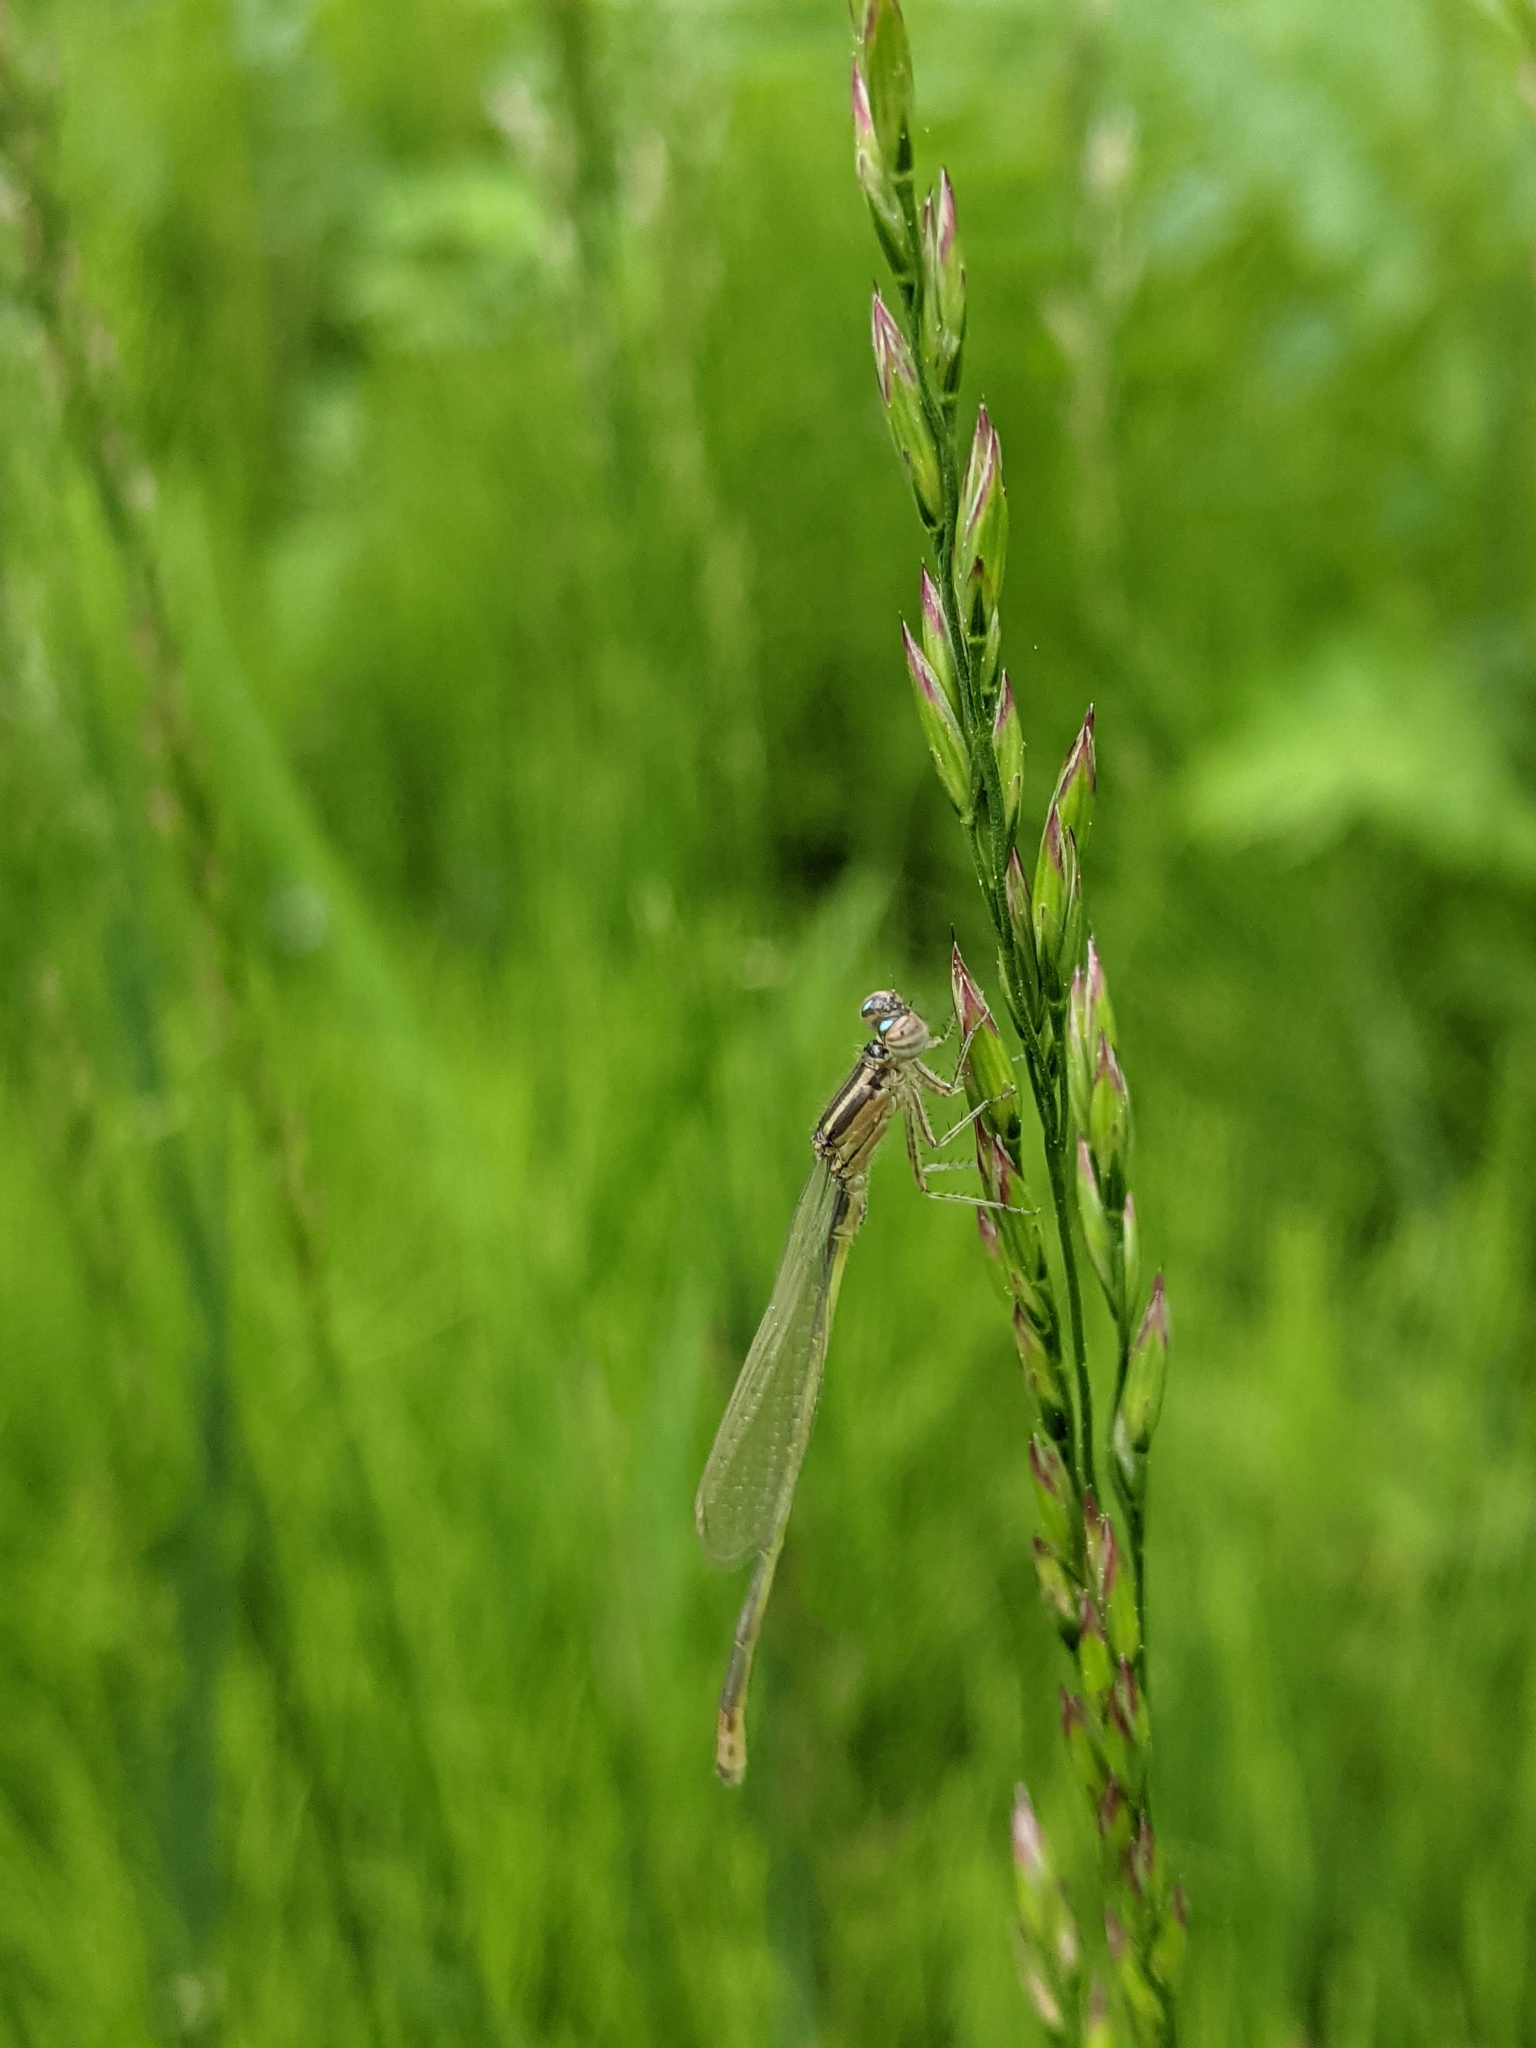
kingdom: Animalia
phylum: Arthropoda
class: Insecta
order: Odonata
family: Coenagrionidae
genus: Ischnura
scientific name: Ischnura verticalis
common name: Eastern forktail
